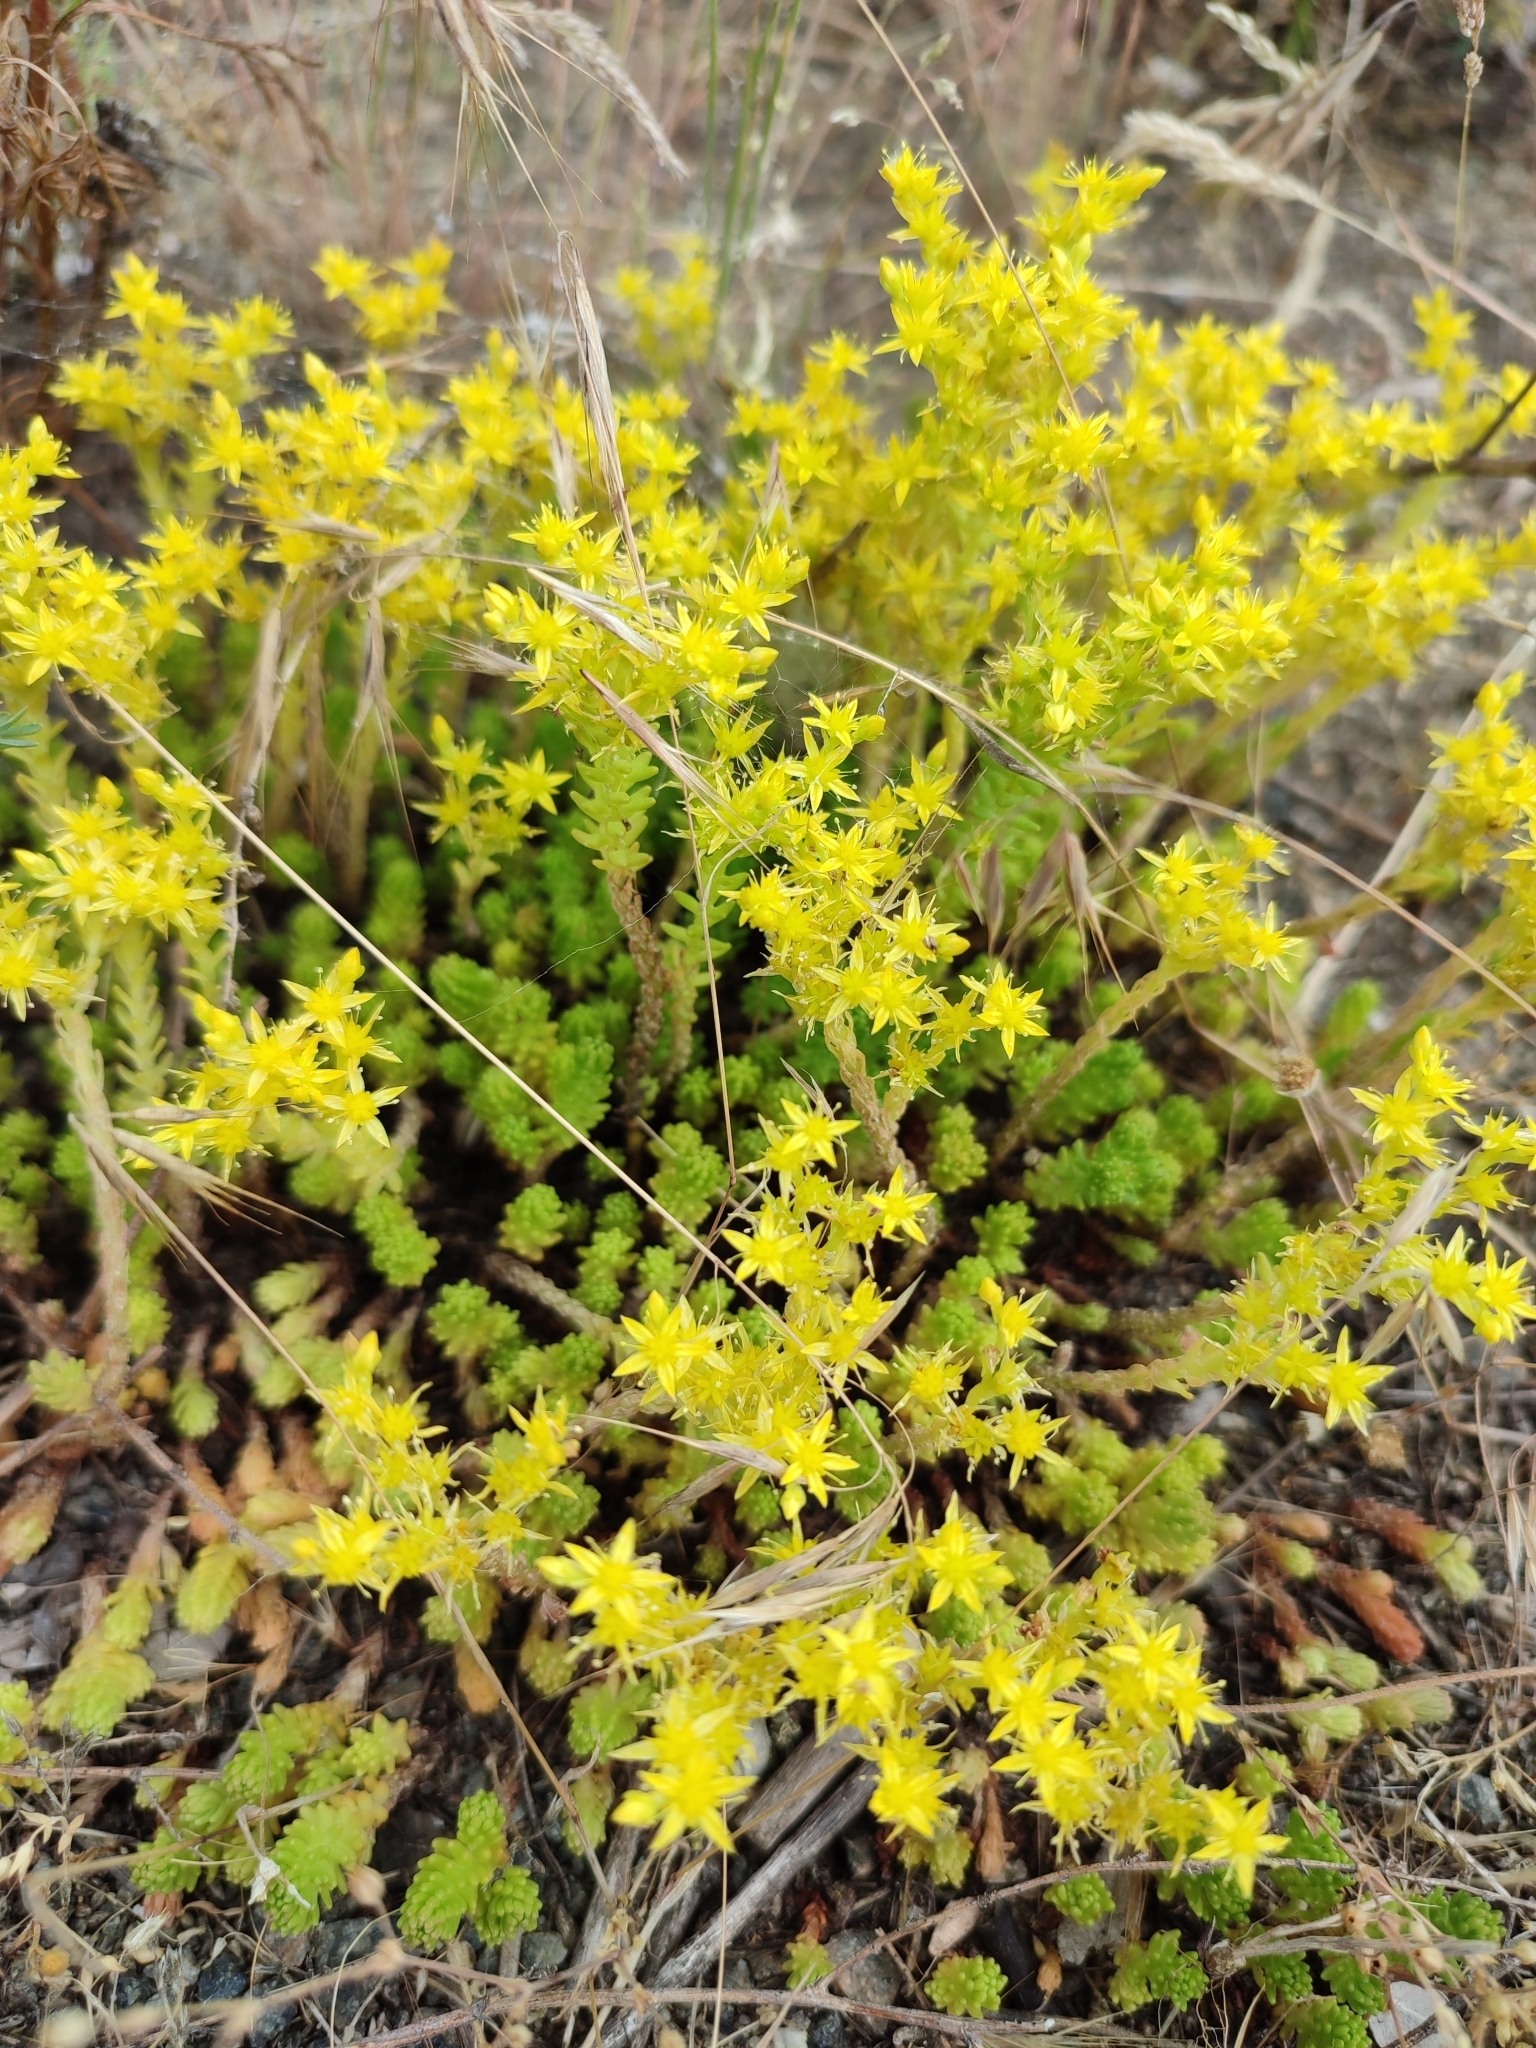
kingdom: Plantae
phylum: Tracheophyta
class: Magnoliopsida
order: Saxifragales
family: Crassulaceae
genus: Sedum
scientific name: Sedum sexangulare
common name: Tasteless stonecrop
